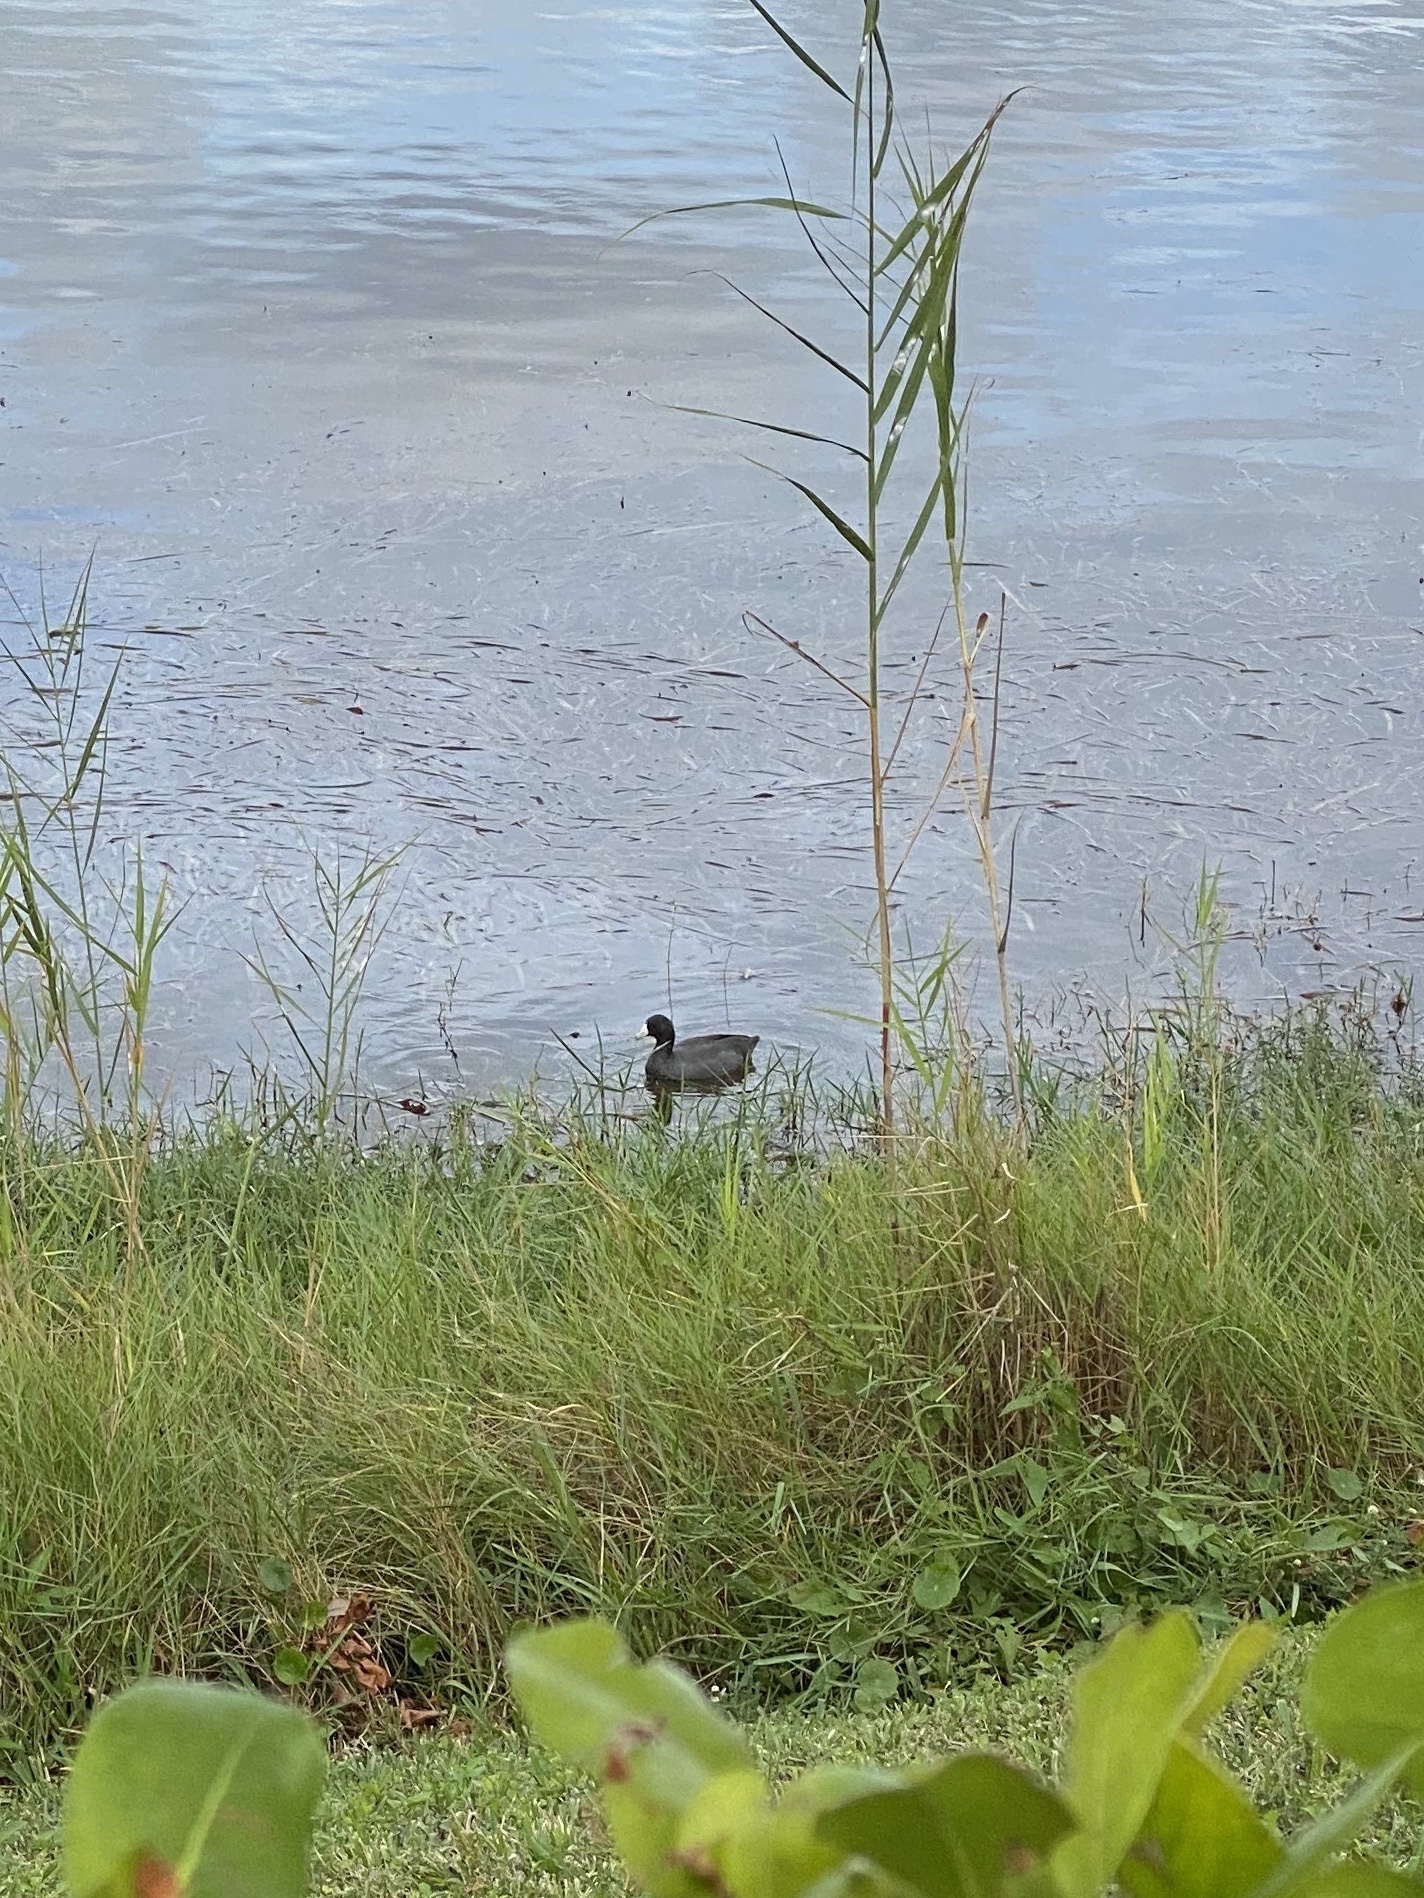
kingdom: Animalia
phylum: Chordata
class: Aves
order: Gruiformes
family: Rallidae
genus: Fulica
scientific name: Fulica americana
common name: American coot
